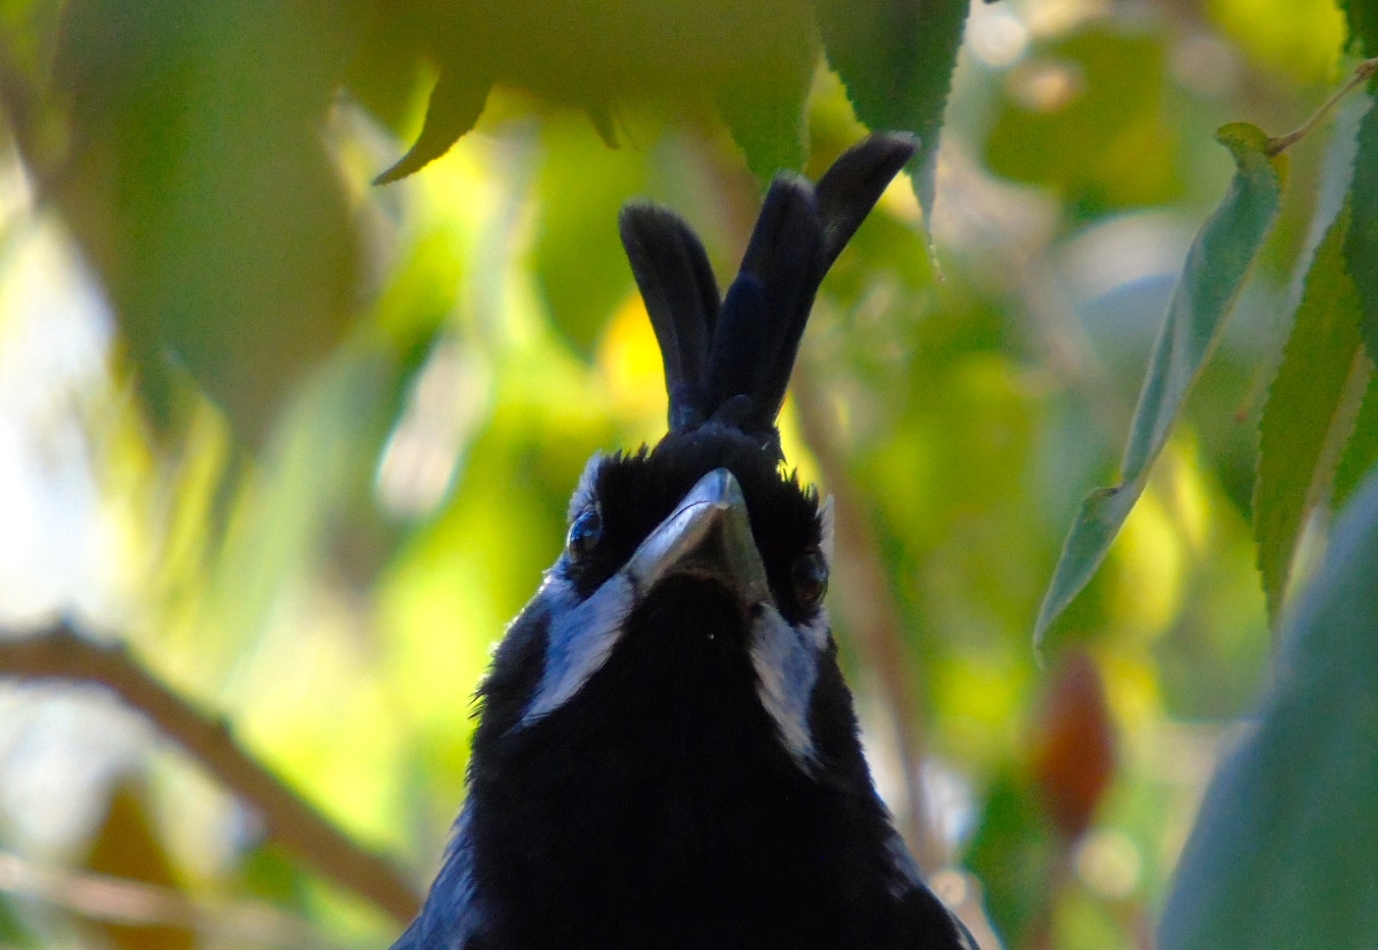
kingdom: Animalia
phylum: Chordata
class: Aves
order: Passeriformes
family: Corvidae
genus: Calocitta
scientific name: Calocitta colliei
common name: Black-throated magpie-jay
